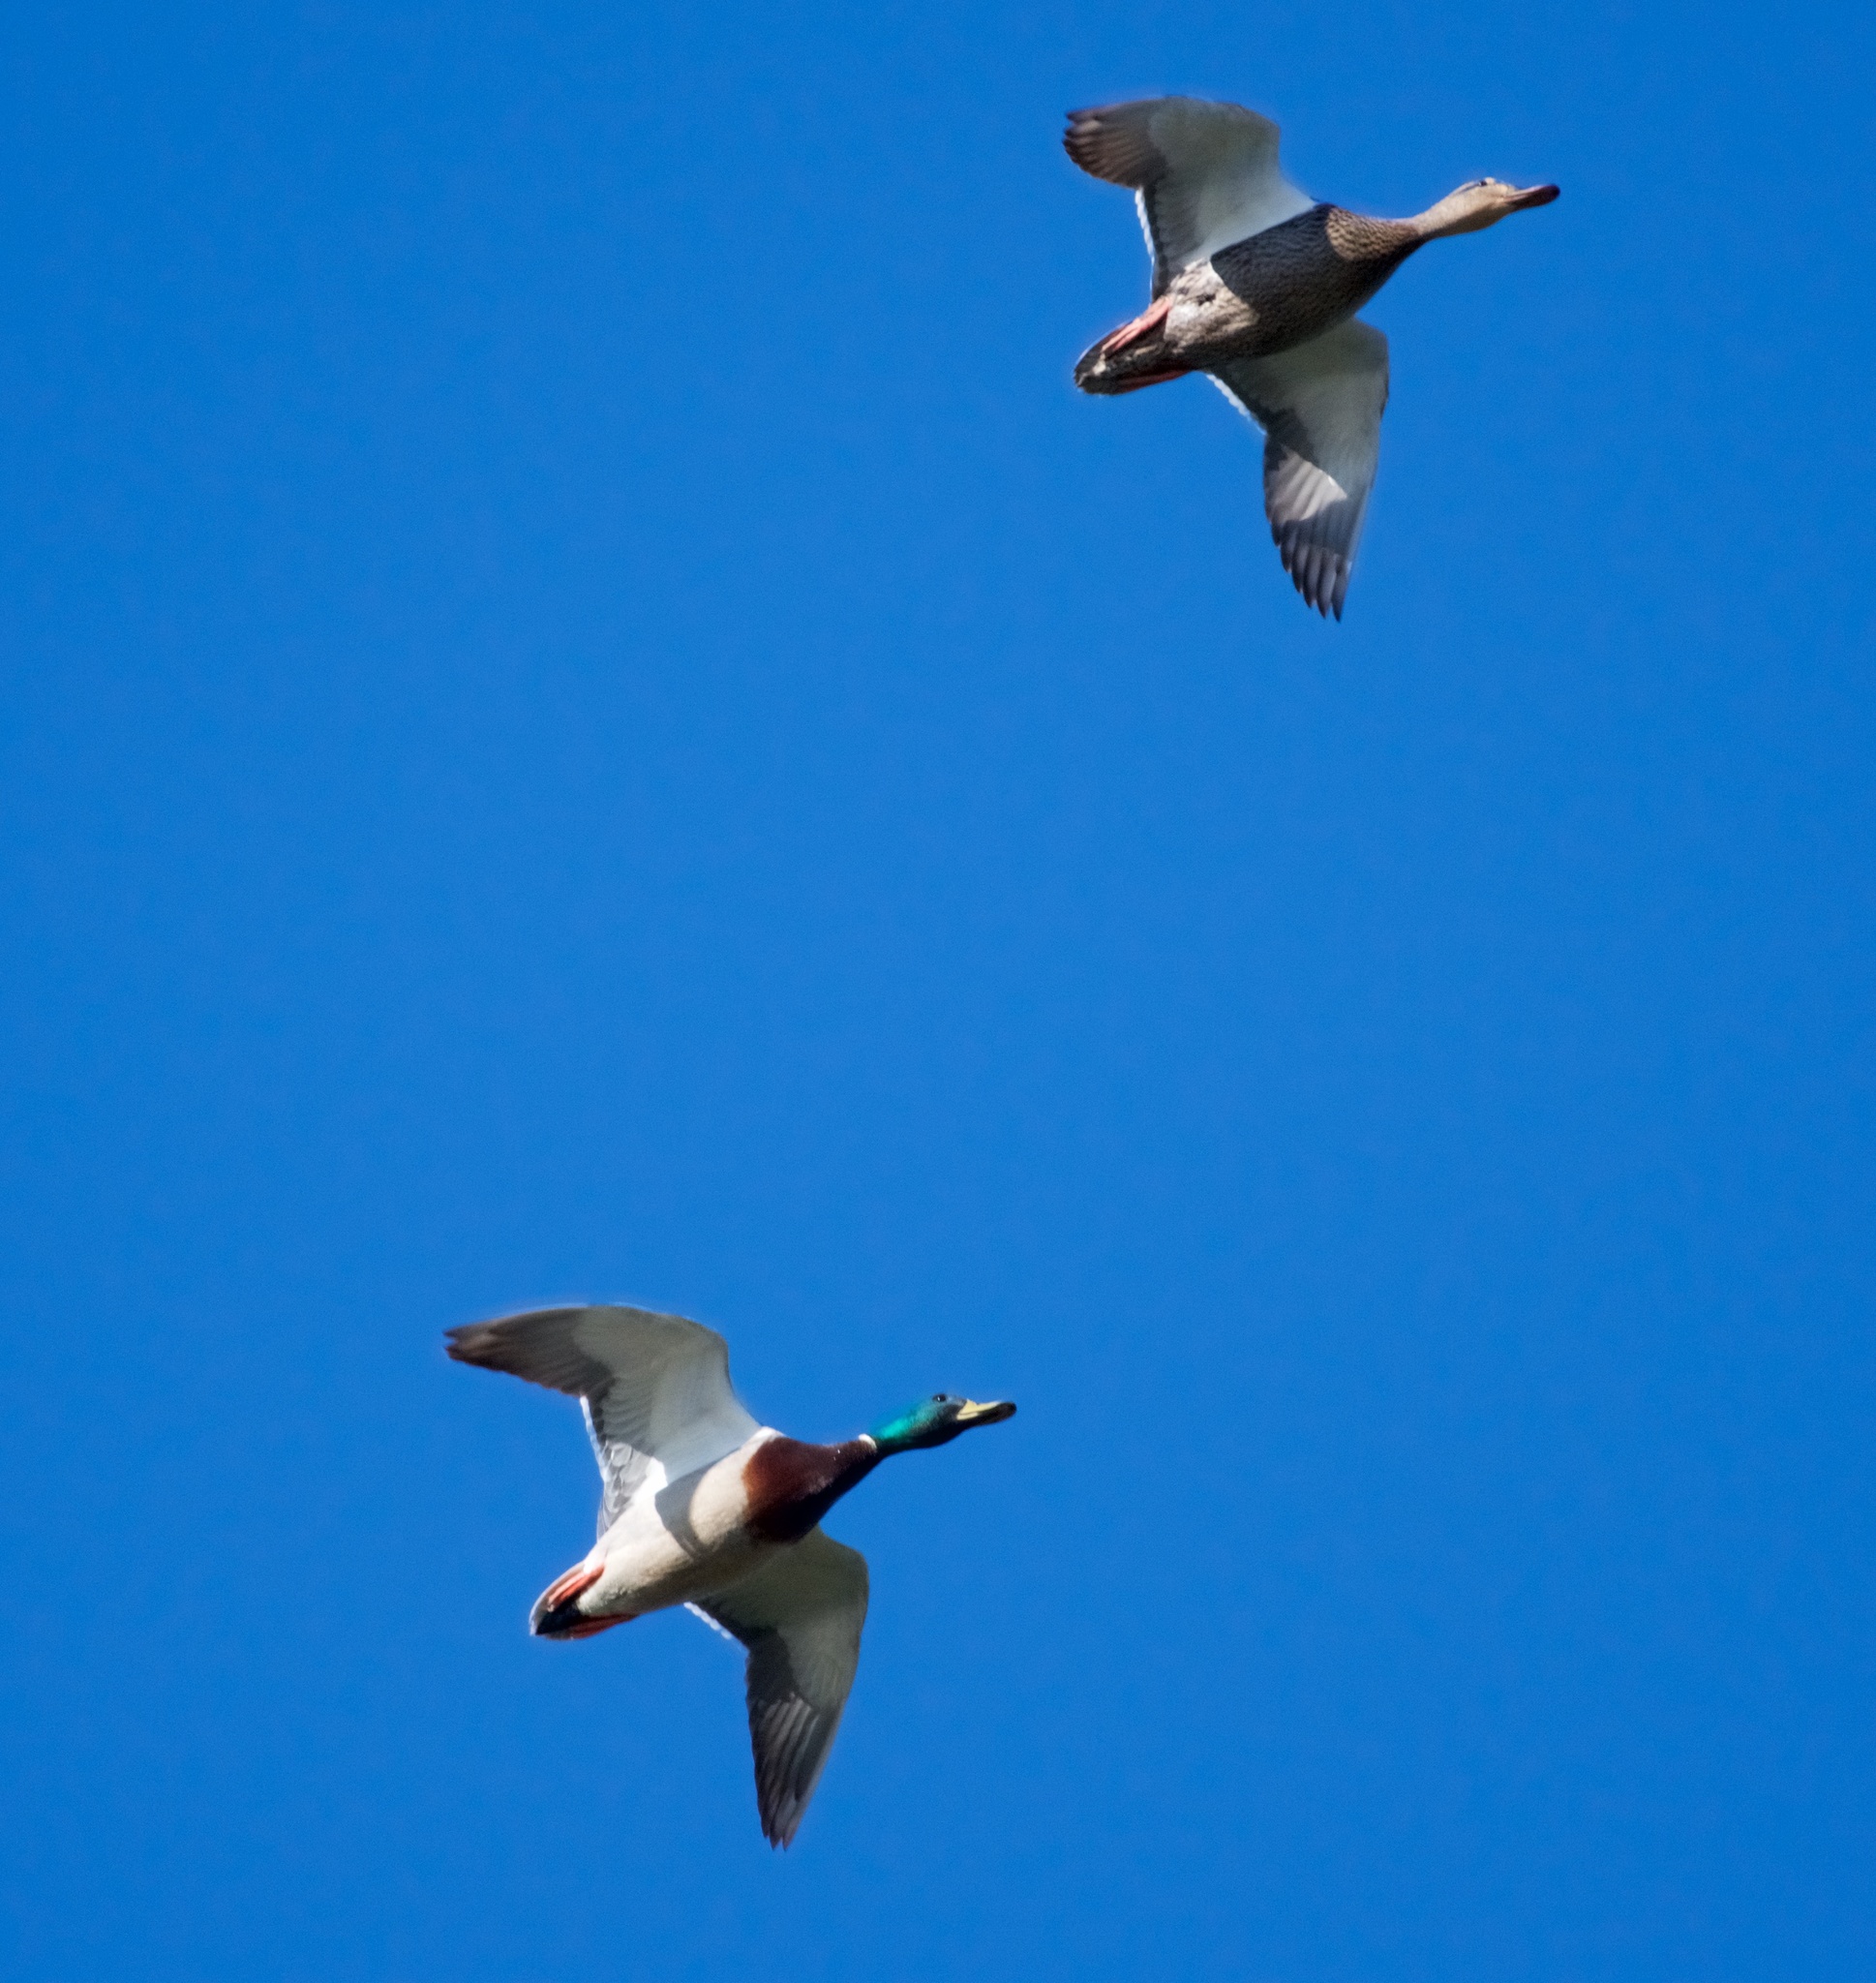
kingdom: Animalia
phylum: Chordata
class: Aves
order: Anseriformes
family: Anatidae
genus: Anas
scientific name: Anas platyrhynchos
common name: Mallard
